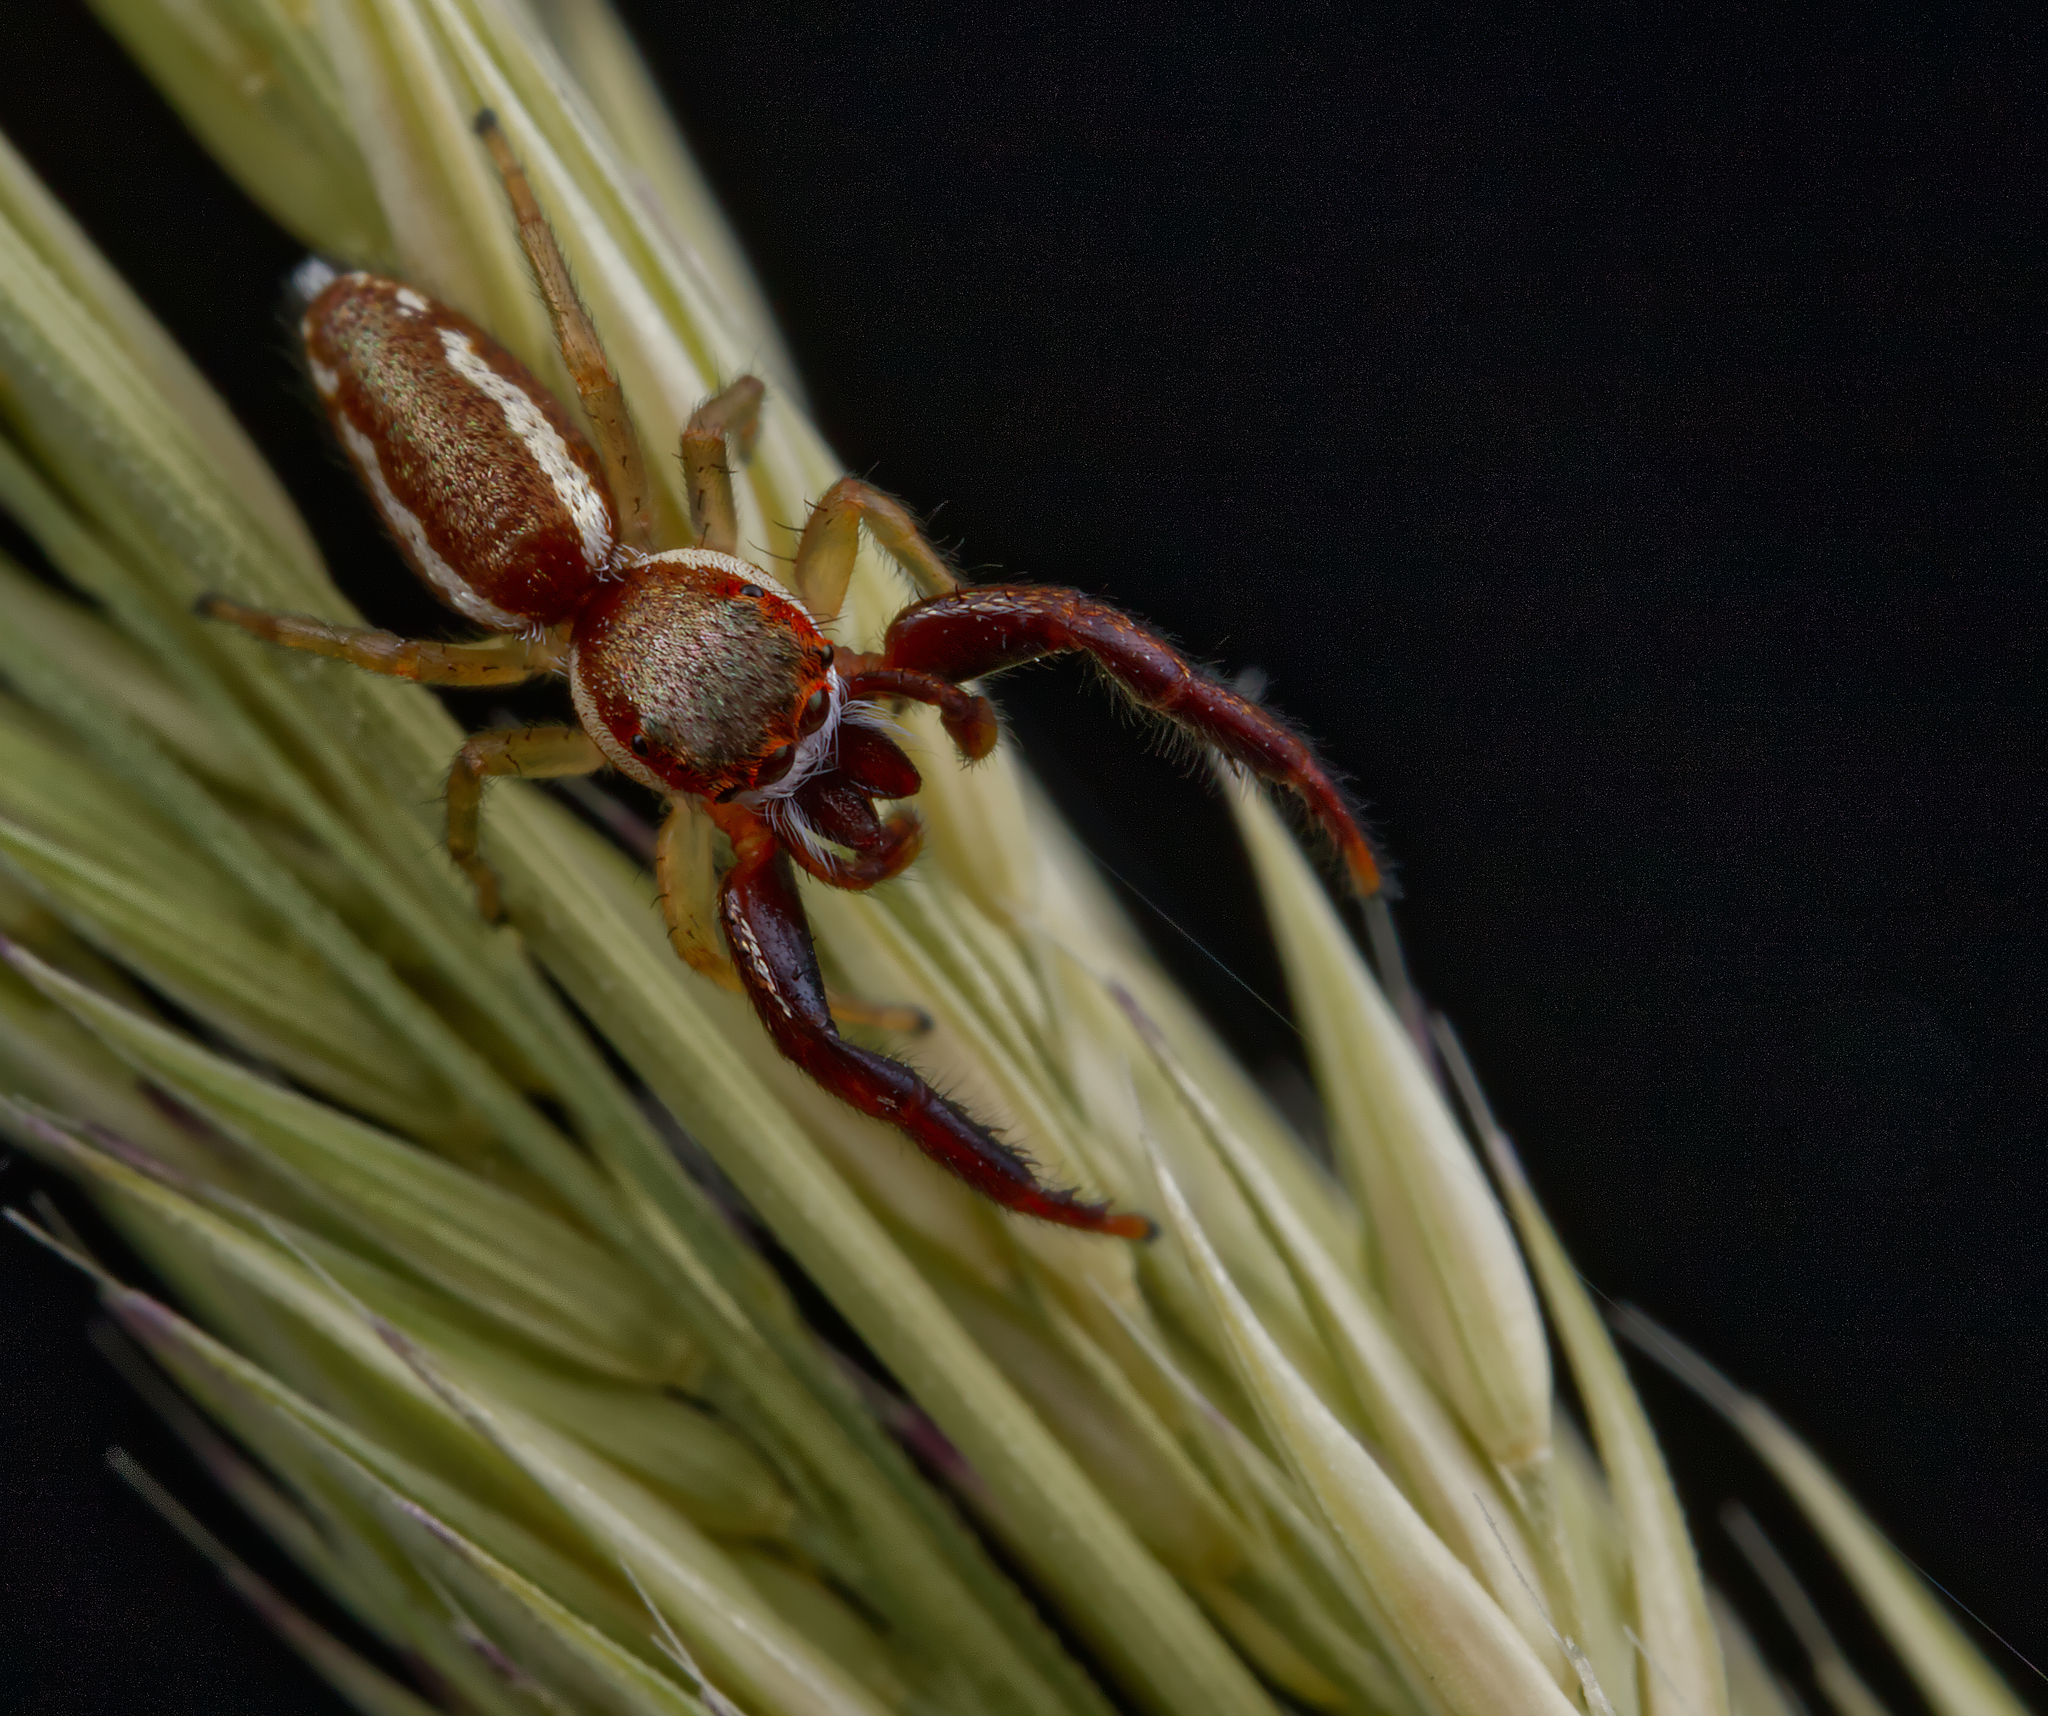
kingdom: Animalia
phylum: Arthropoda
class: Arachnida
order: Araneae
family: Salticidae
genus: Hentzia
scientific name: Hentzia palmarum
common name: Common hentz jumping spider
